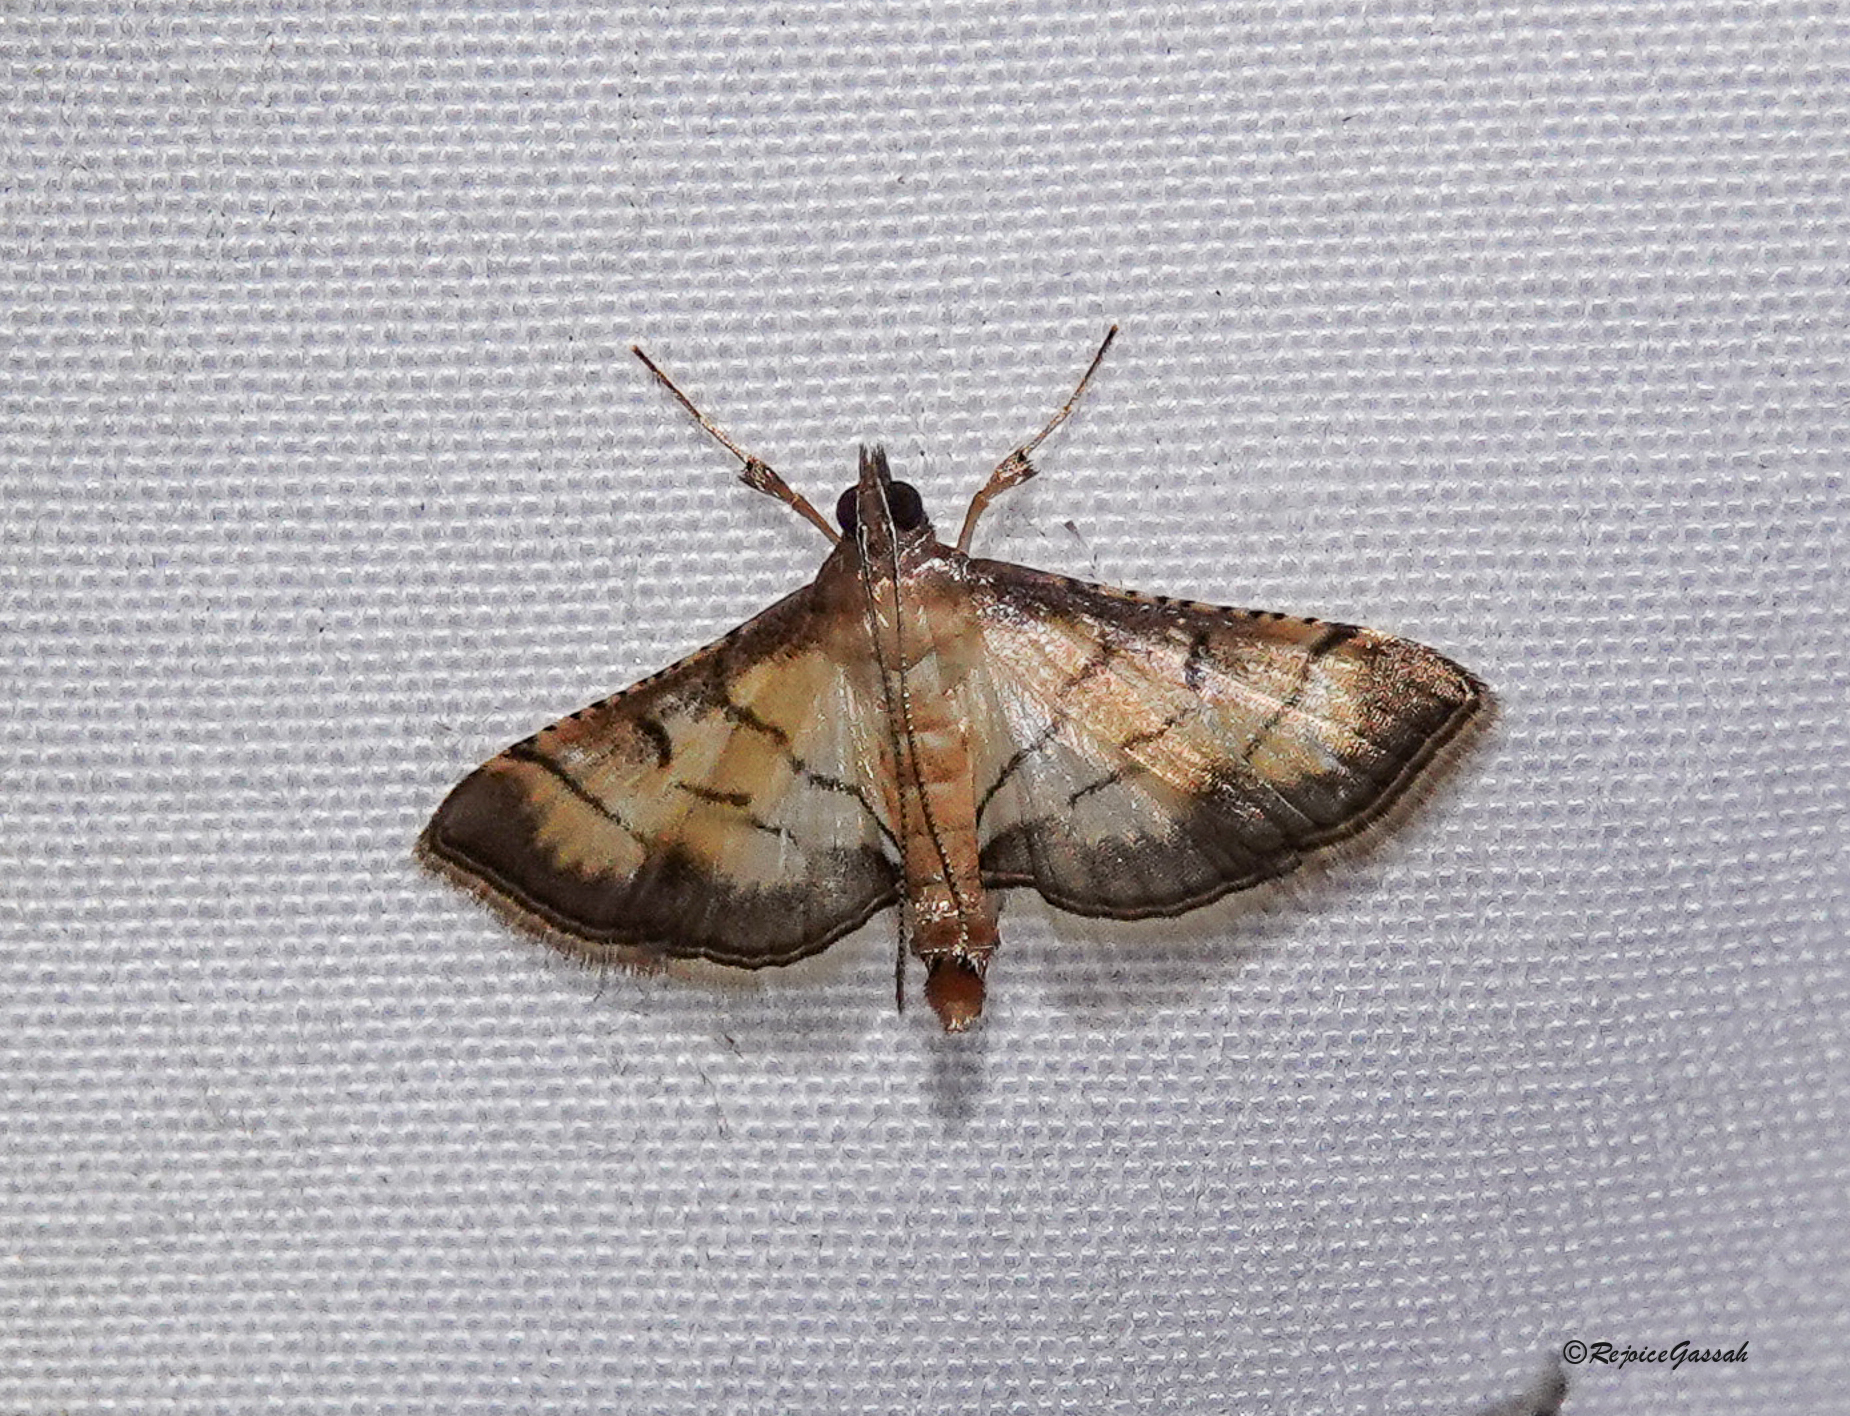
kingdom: Animalia
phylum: Arthropoda
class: Insecta
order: Lepidoptera
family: Crambidae
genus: Cnaphalocrocis
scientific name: Cnaphalocrocis poeyalis
